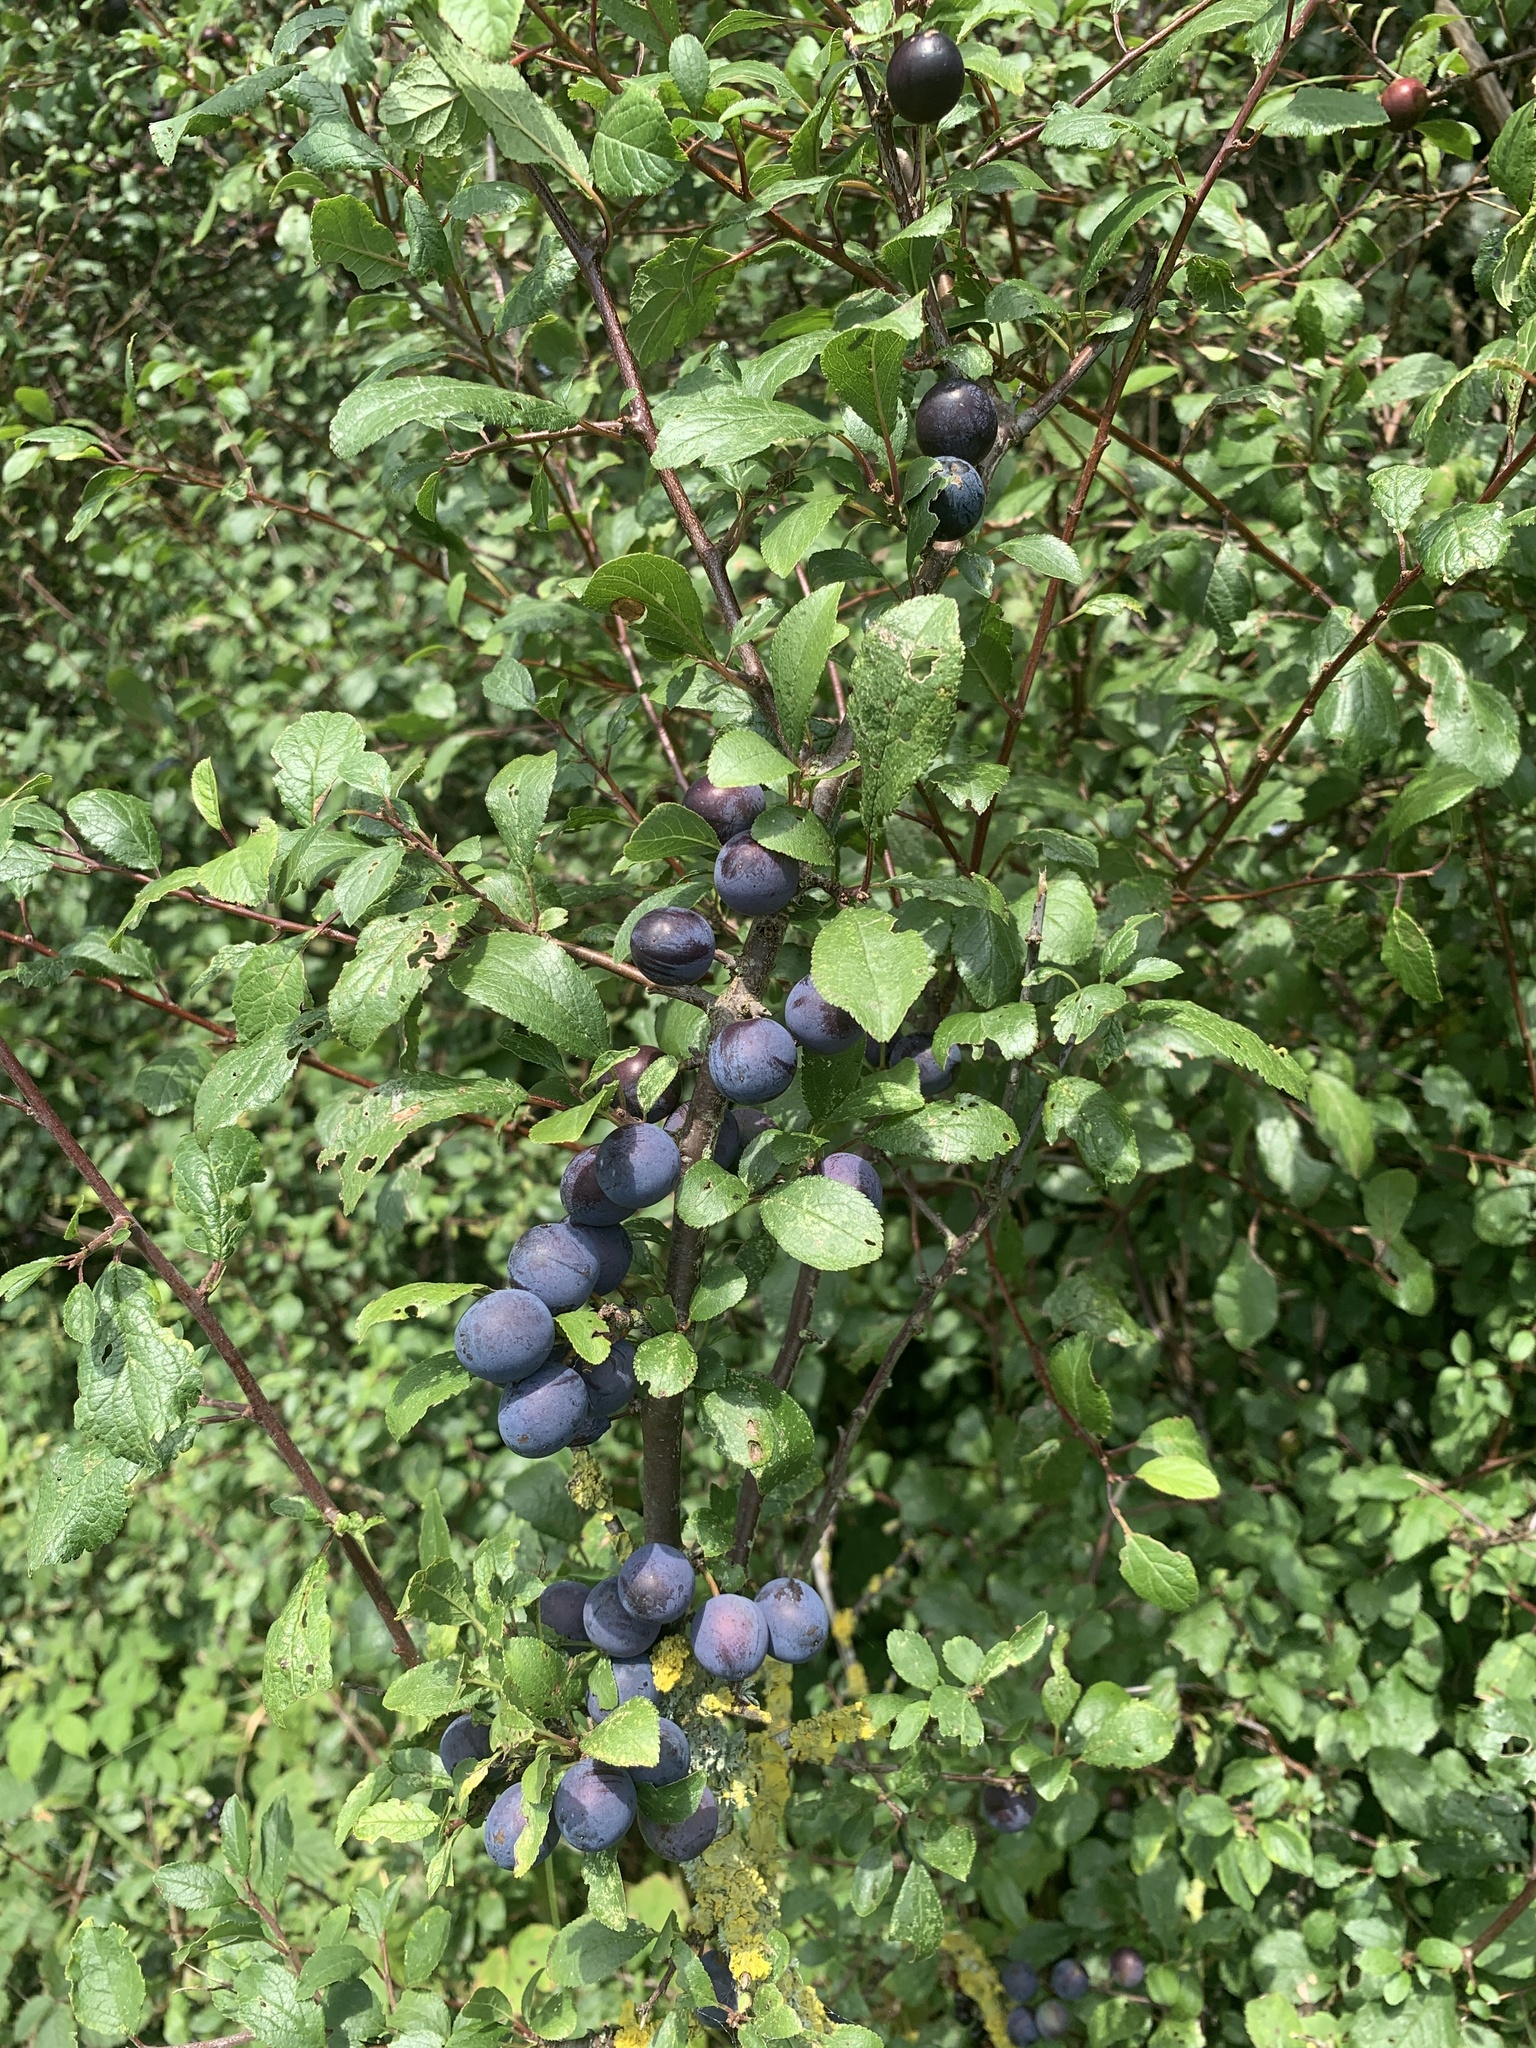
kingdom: Plantae
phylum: Tracheophyta
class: Magnoliopsida
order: Rosales
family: Rosaceae
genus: Prunus
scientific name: Prunus spinosa
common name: Blackthorn
